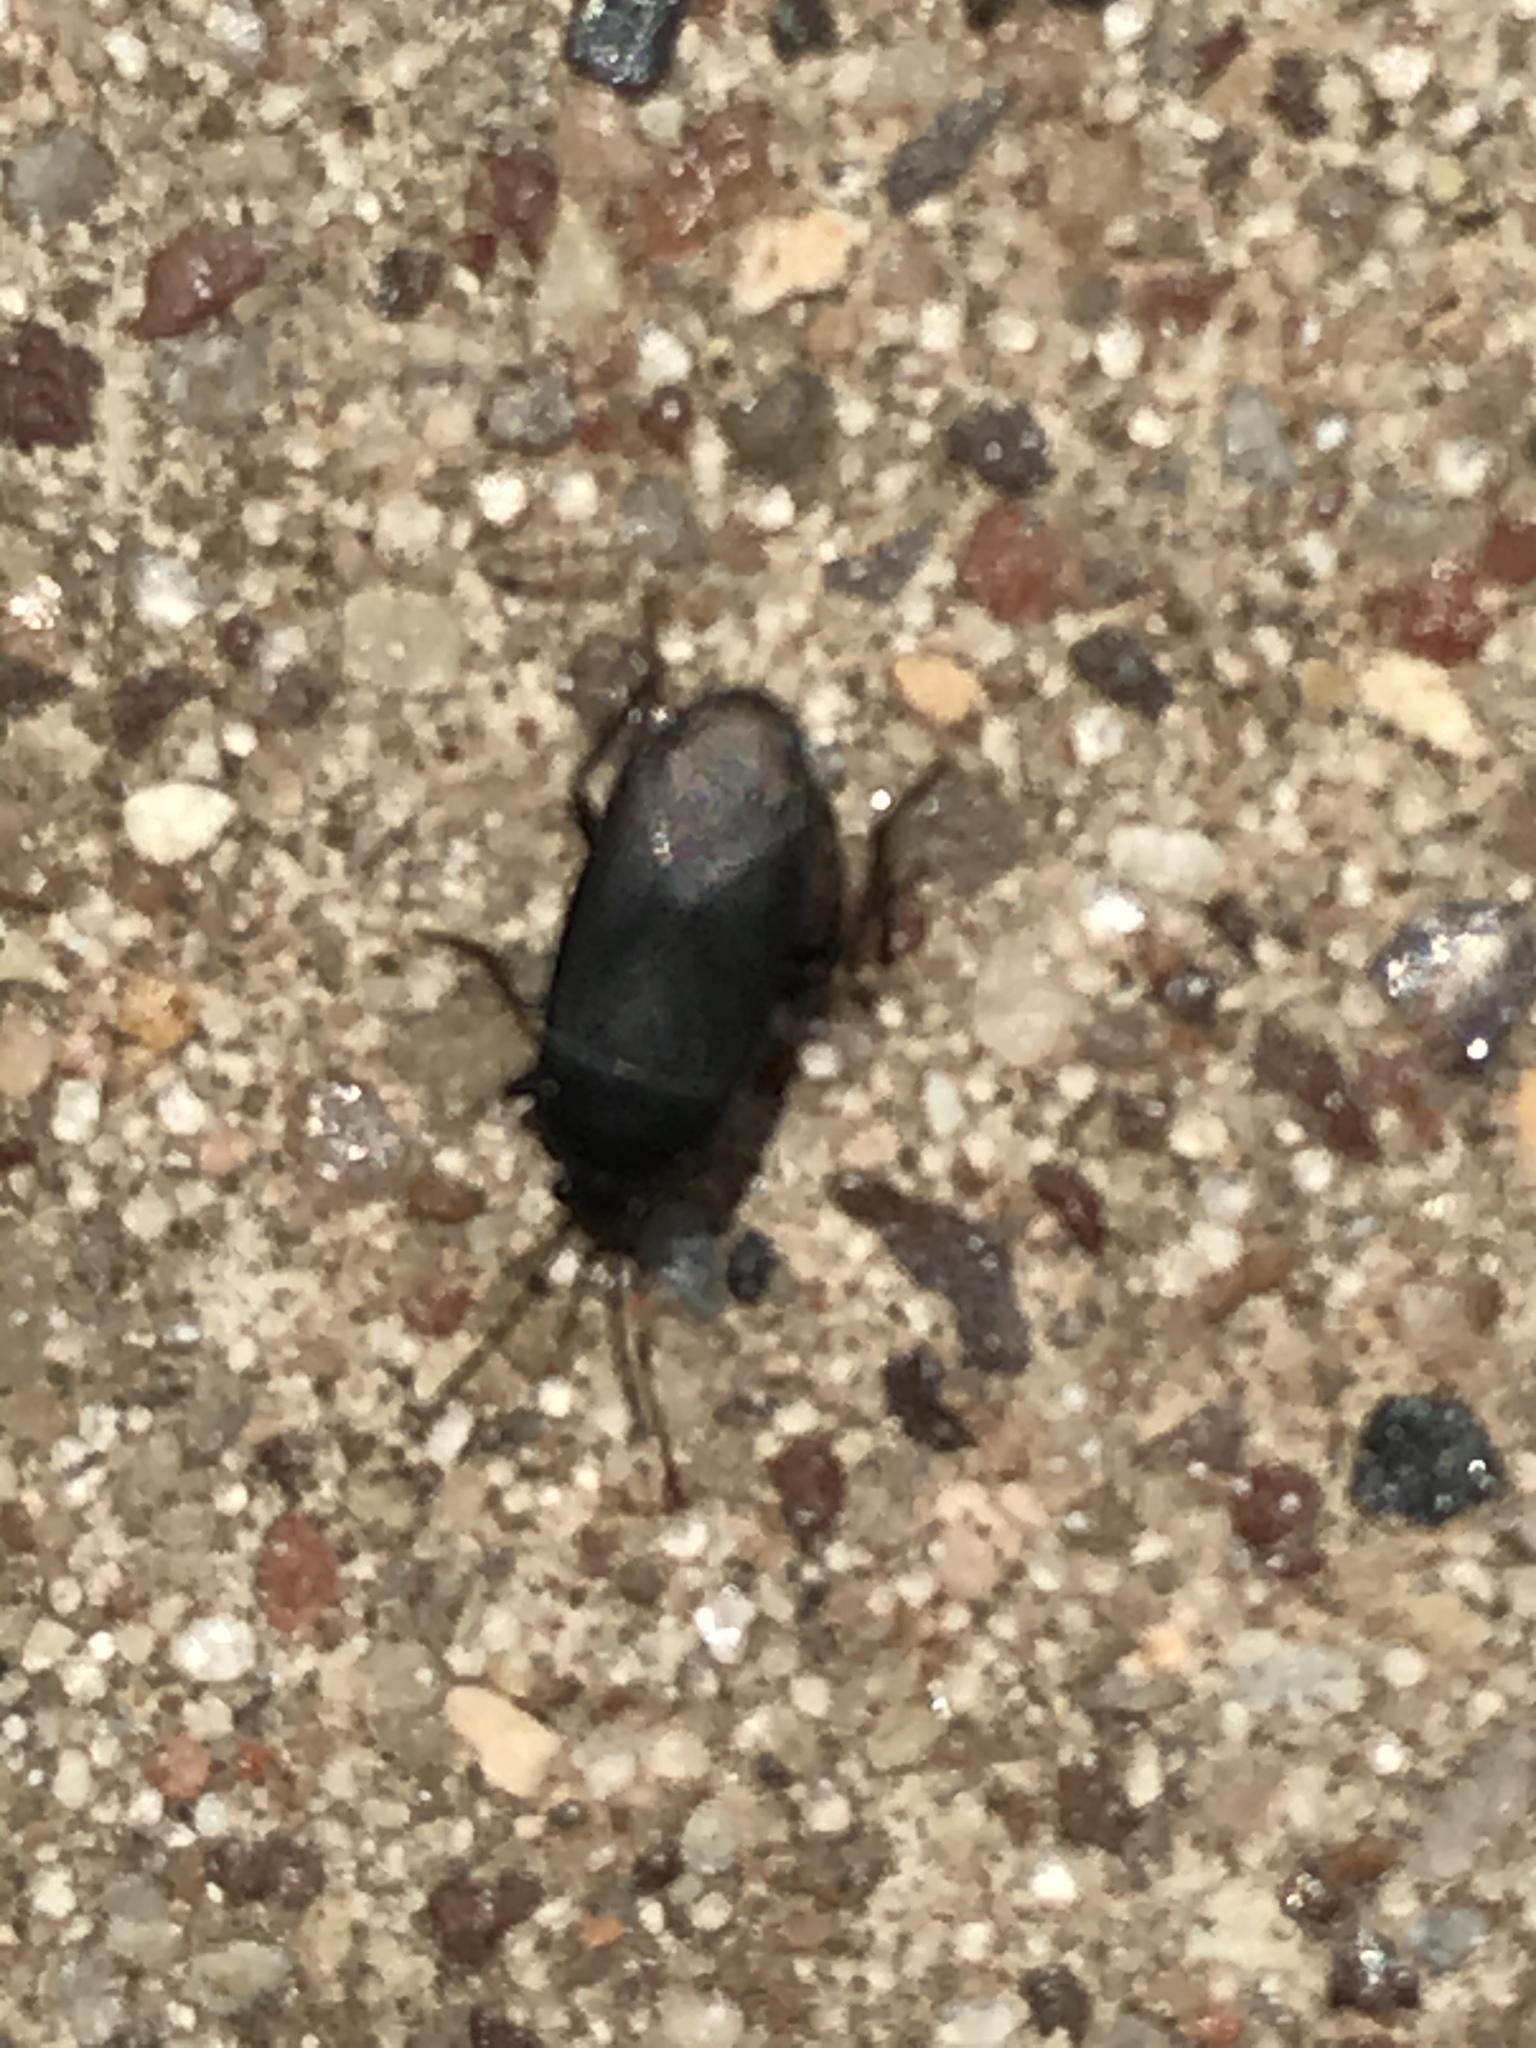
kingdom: Animalia
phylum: Arthropoda
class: Insecta
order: Hemiptera
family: Rhyparochromidae
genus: Atrazonotus
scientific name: Atrazonotus umbrosus
